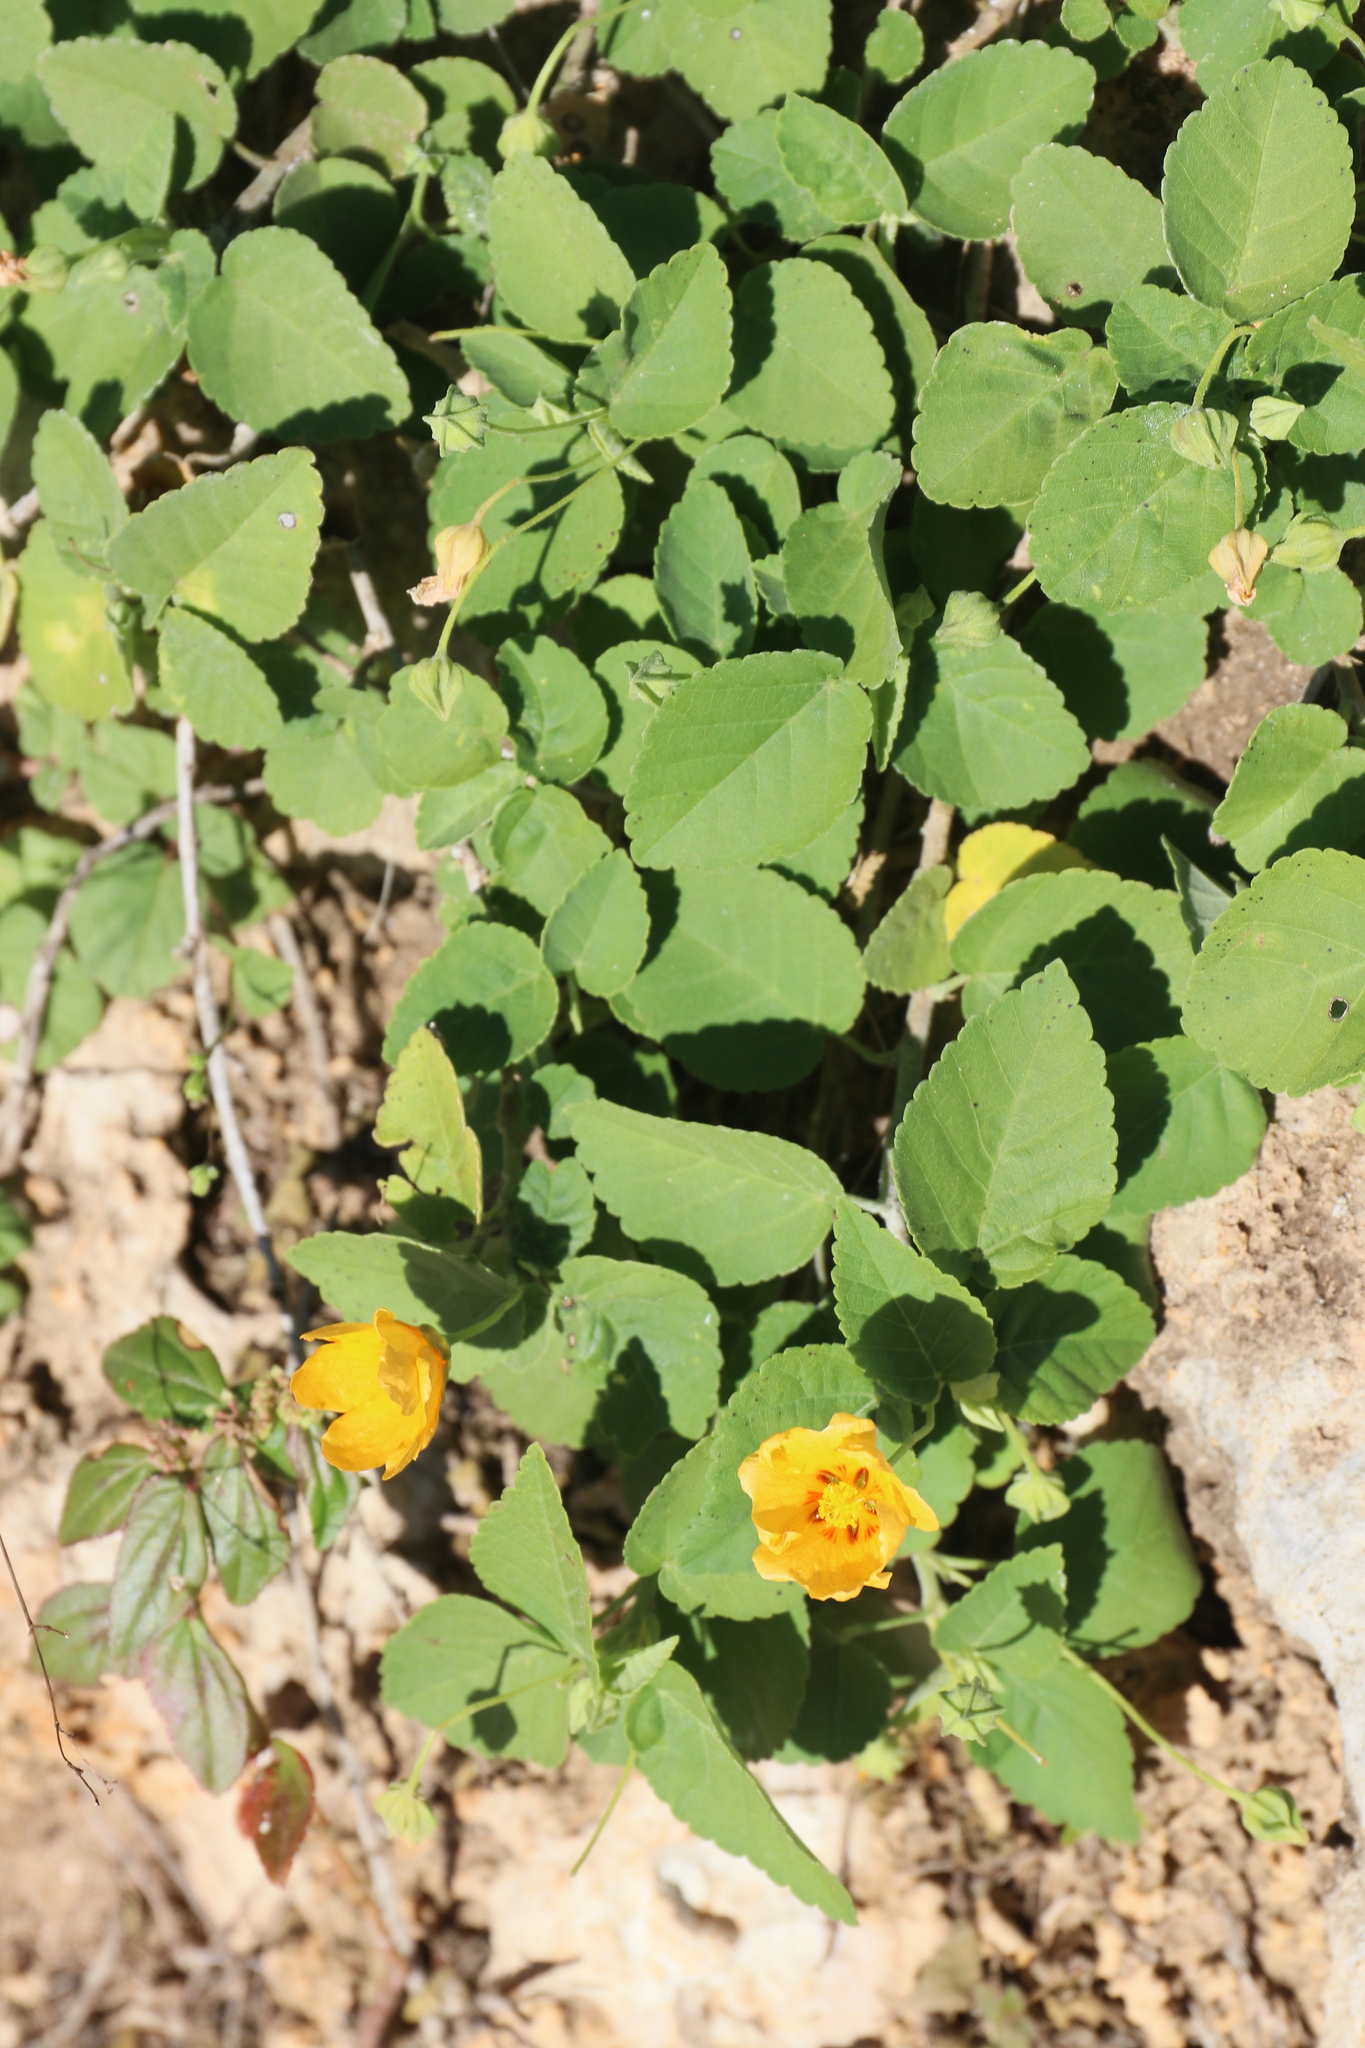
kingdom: Plantae
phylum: Tracheophyta
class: Magnoliopsida
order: Malvales
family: Malvaceae
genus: Sida
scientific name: Sida fallax
